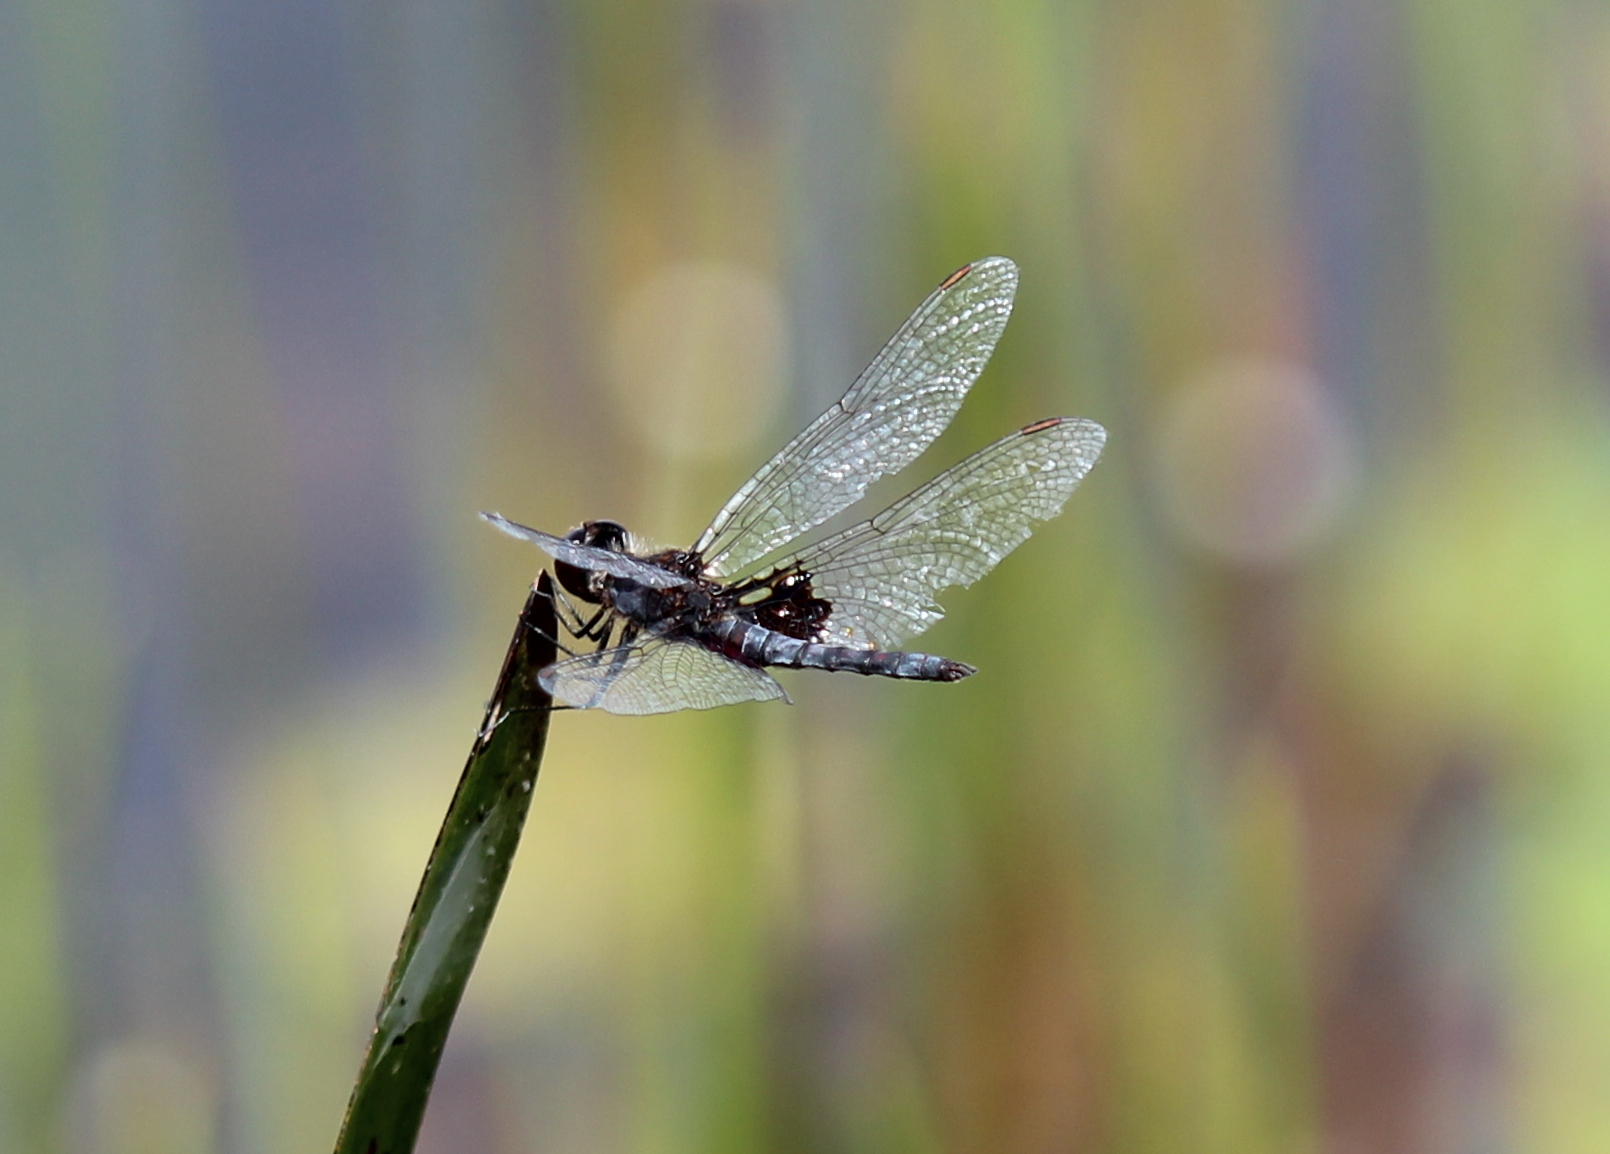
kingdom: Animalia
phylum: Arthropoda
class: Insecta
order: Odonata
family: Libellulidae
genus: Celithemis
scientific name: Celithemis martha
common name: Martha's pennant
